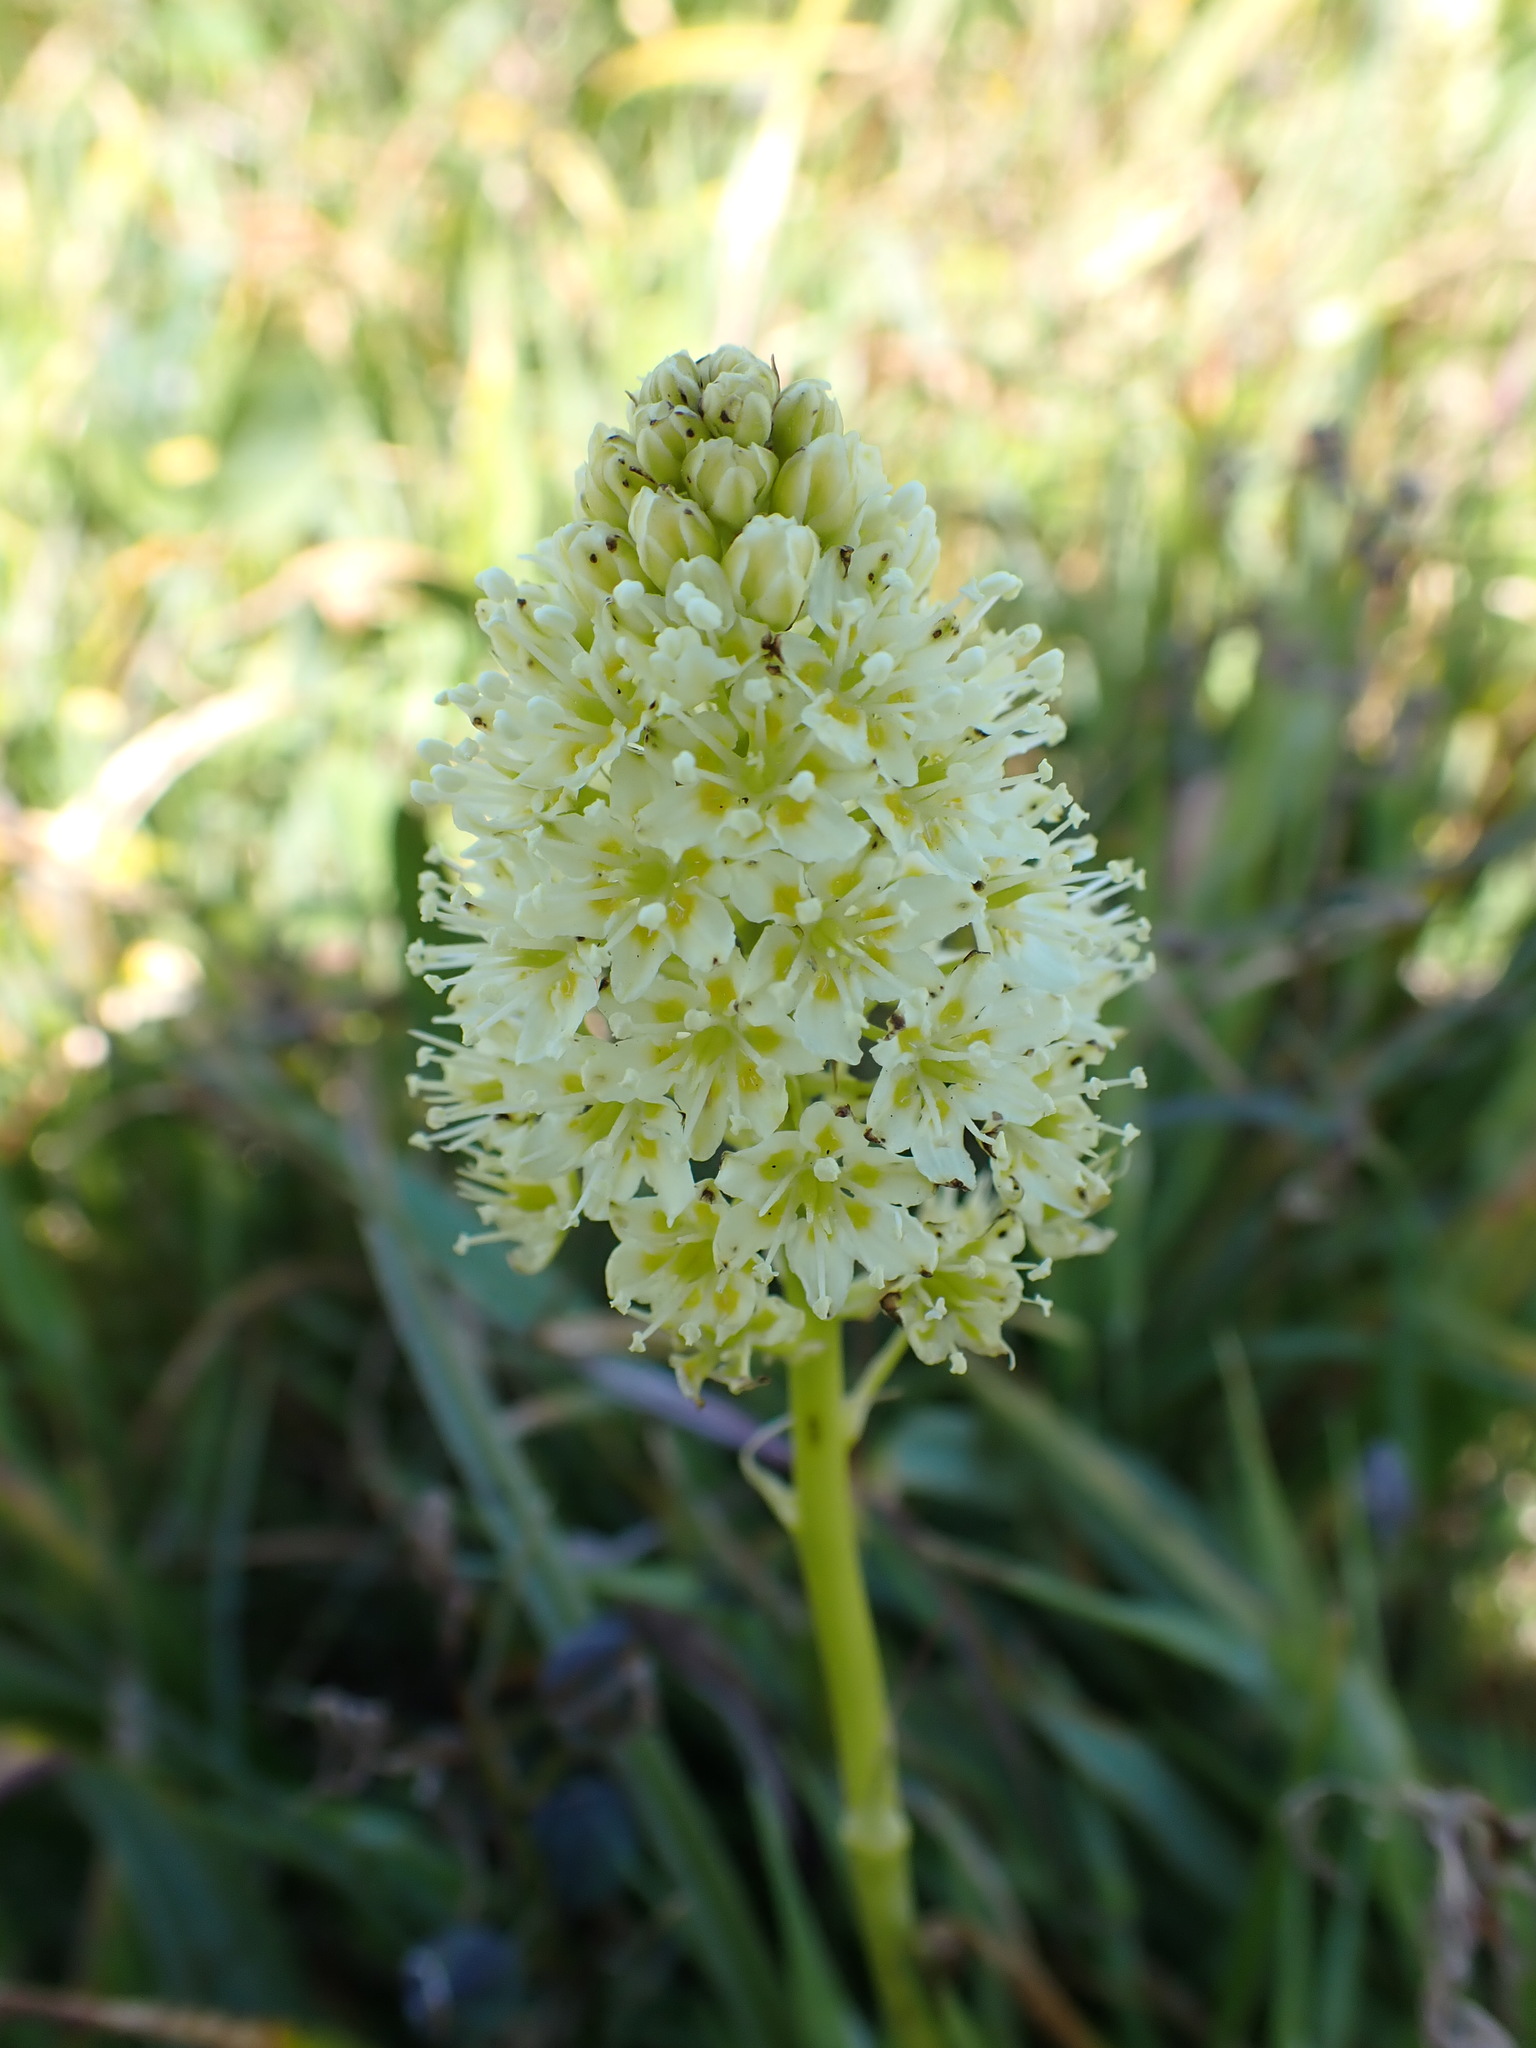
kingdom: Plantae
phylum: Tracheophyta
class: Liliopsida
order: Liliales
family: Melanthiaceae
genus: Toxicoscordion
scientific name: Toxicoscordion venenosum
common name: Meadow death camas
